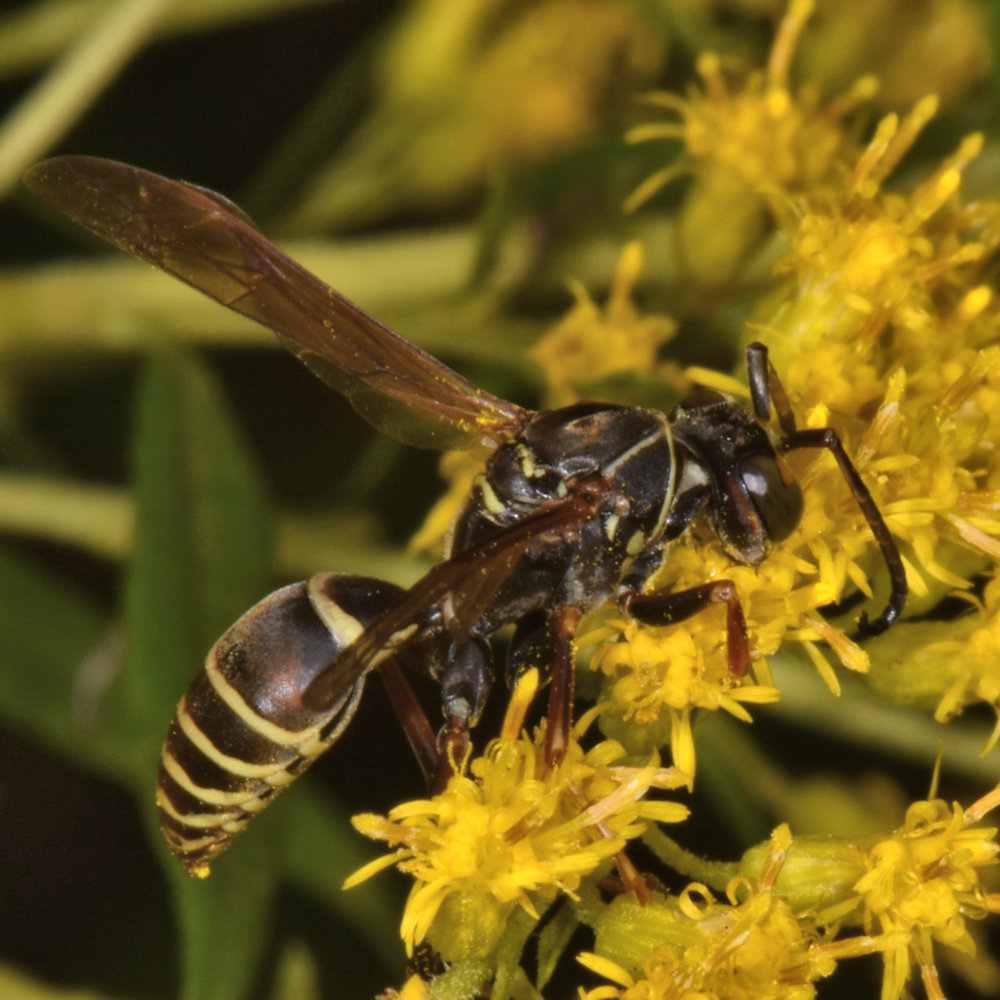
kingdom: Animalia
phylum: Arthropoda
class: Insecta
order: Hymenoptera
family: Eumenidae
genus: Polistes
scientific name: Polistes fuscatus
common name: Dark paper wasp
